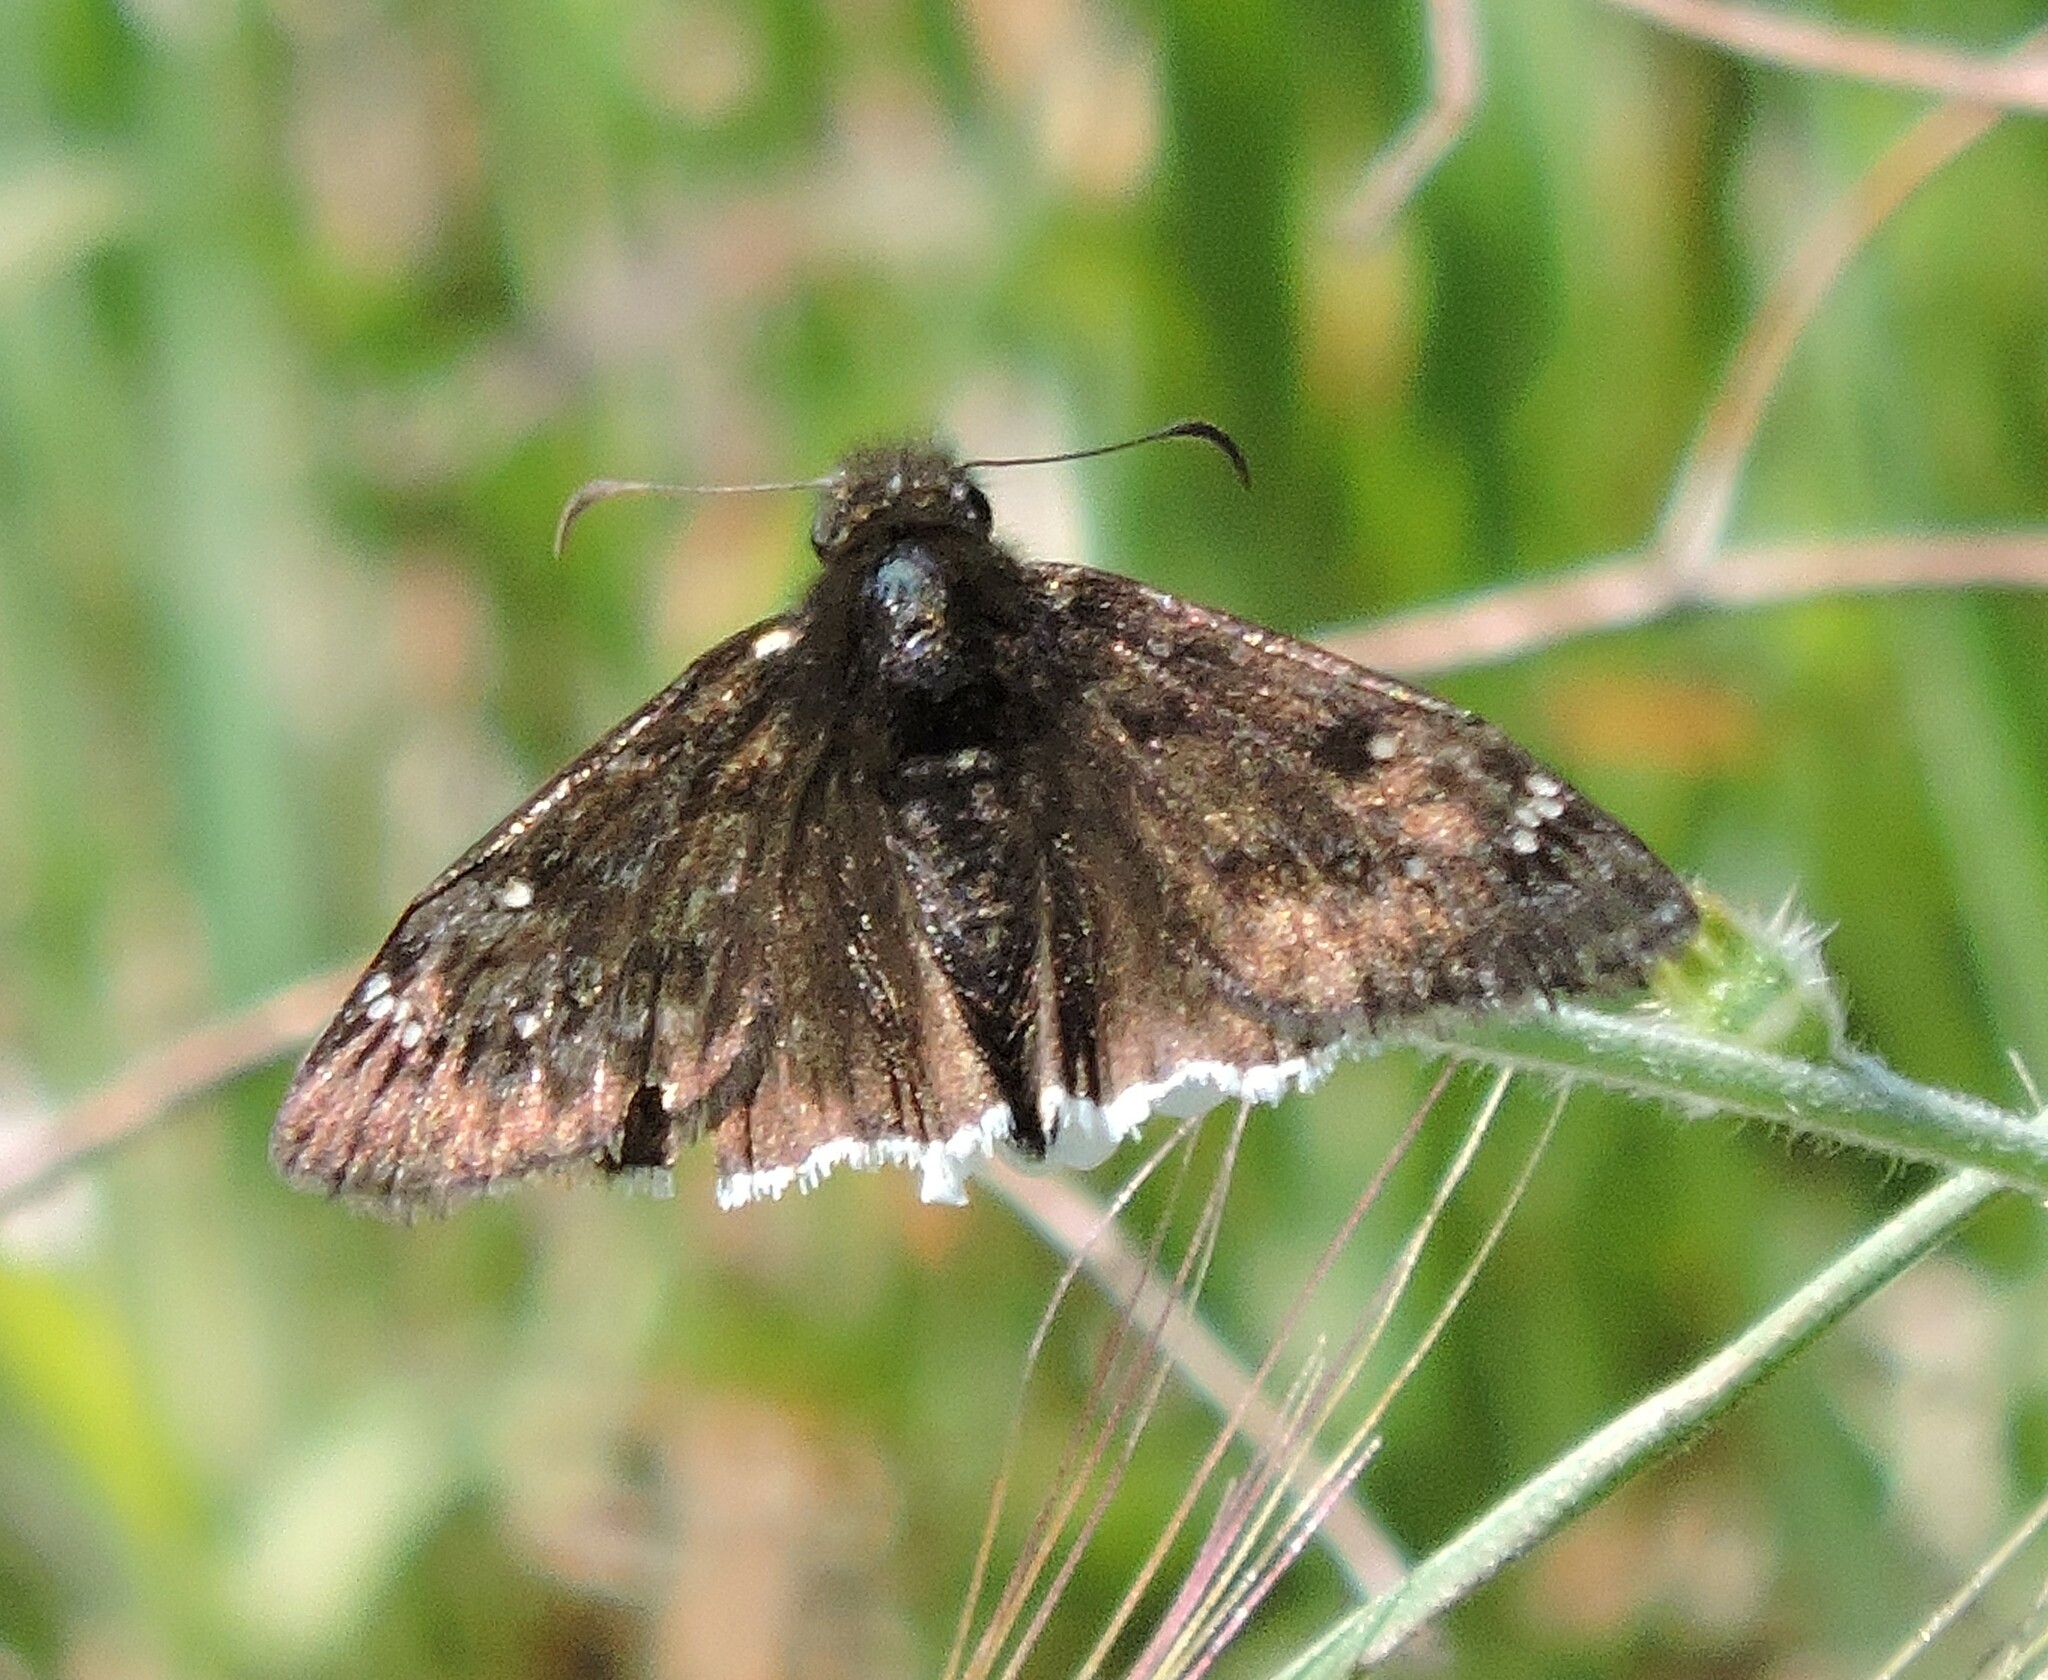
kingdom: Animalia
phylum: Arthropoda
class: Insecta
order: Lepidoptera
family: Hesperiidae
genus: Erynnis
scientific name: Erynnis tristis
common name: Mournful duskywing
